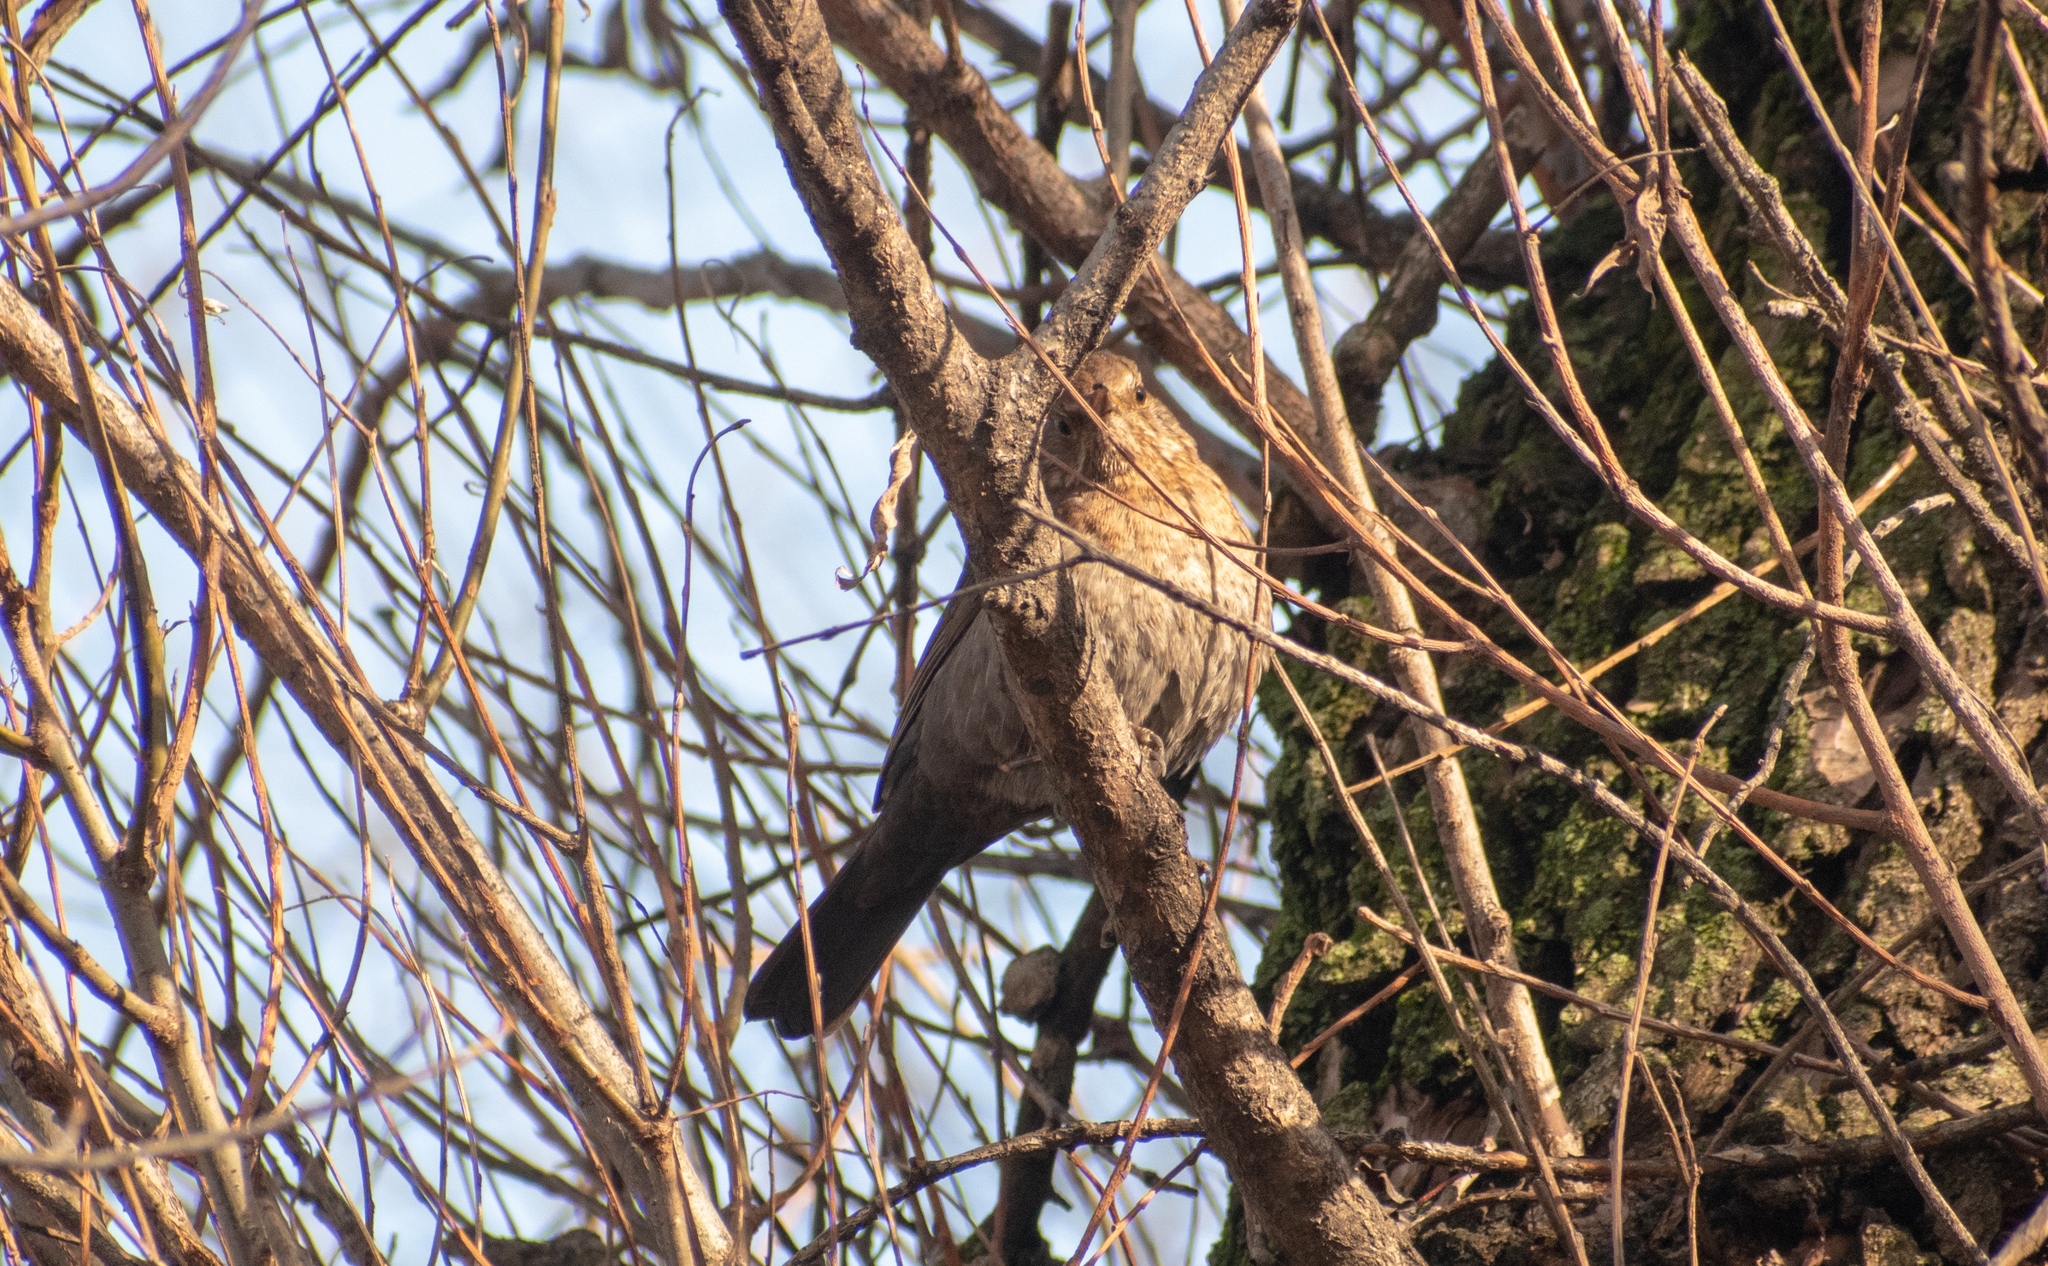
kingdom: Animalia
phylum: Chordata
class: Aves
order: Passeriformes
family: Turdidae
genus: Turdus
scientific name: Turdus merula
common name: Common blackbird
